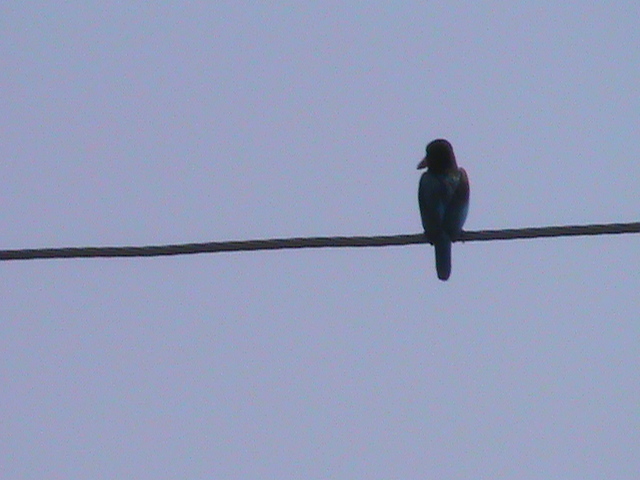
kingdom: Animalia
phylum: Chordata
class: Aves
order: Coraciiformes
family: Alcedinidae
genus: Halcyon
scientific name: Halcyon smyrnensis
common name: White-throated kingfisher
